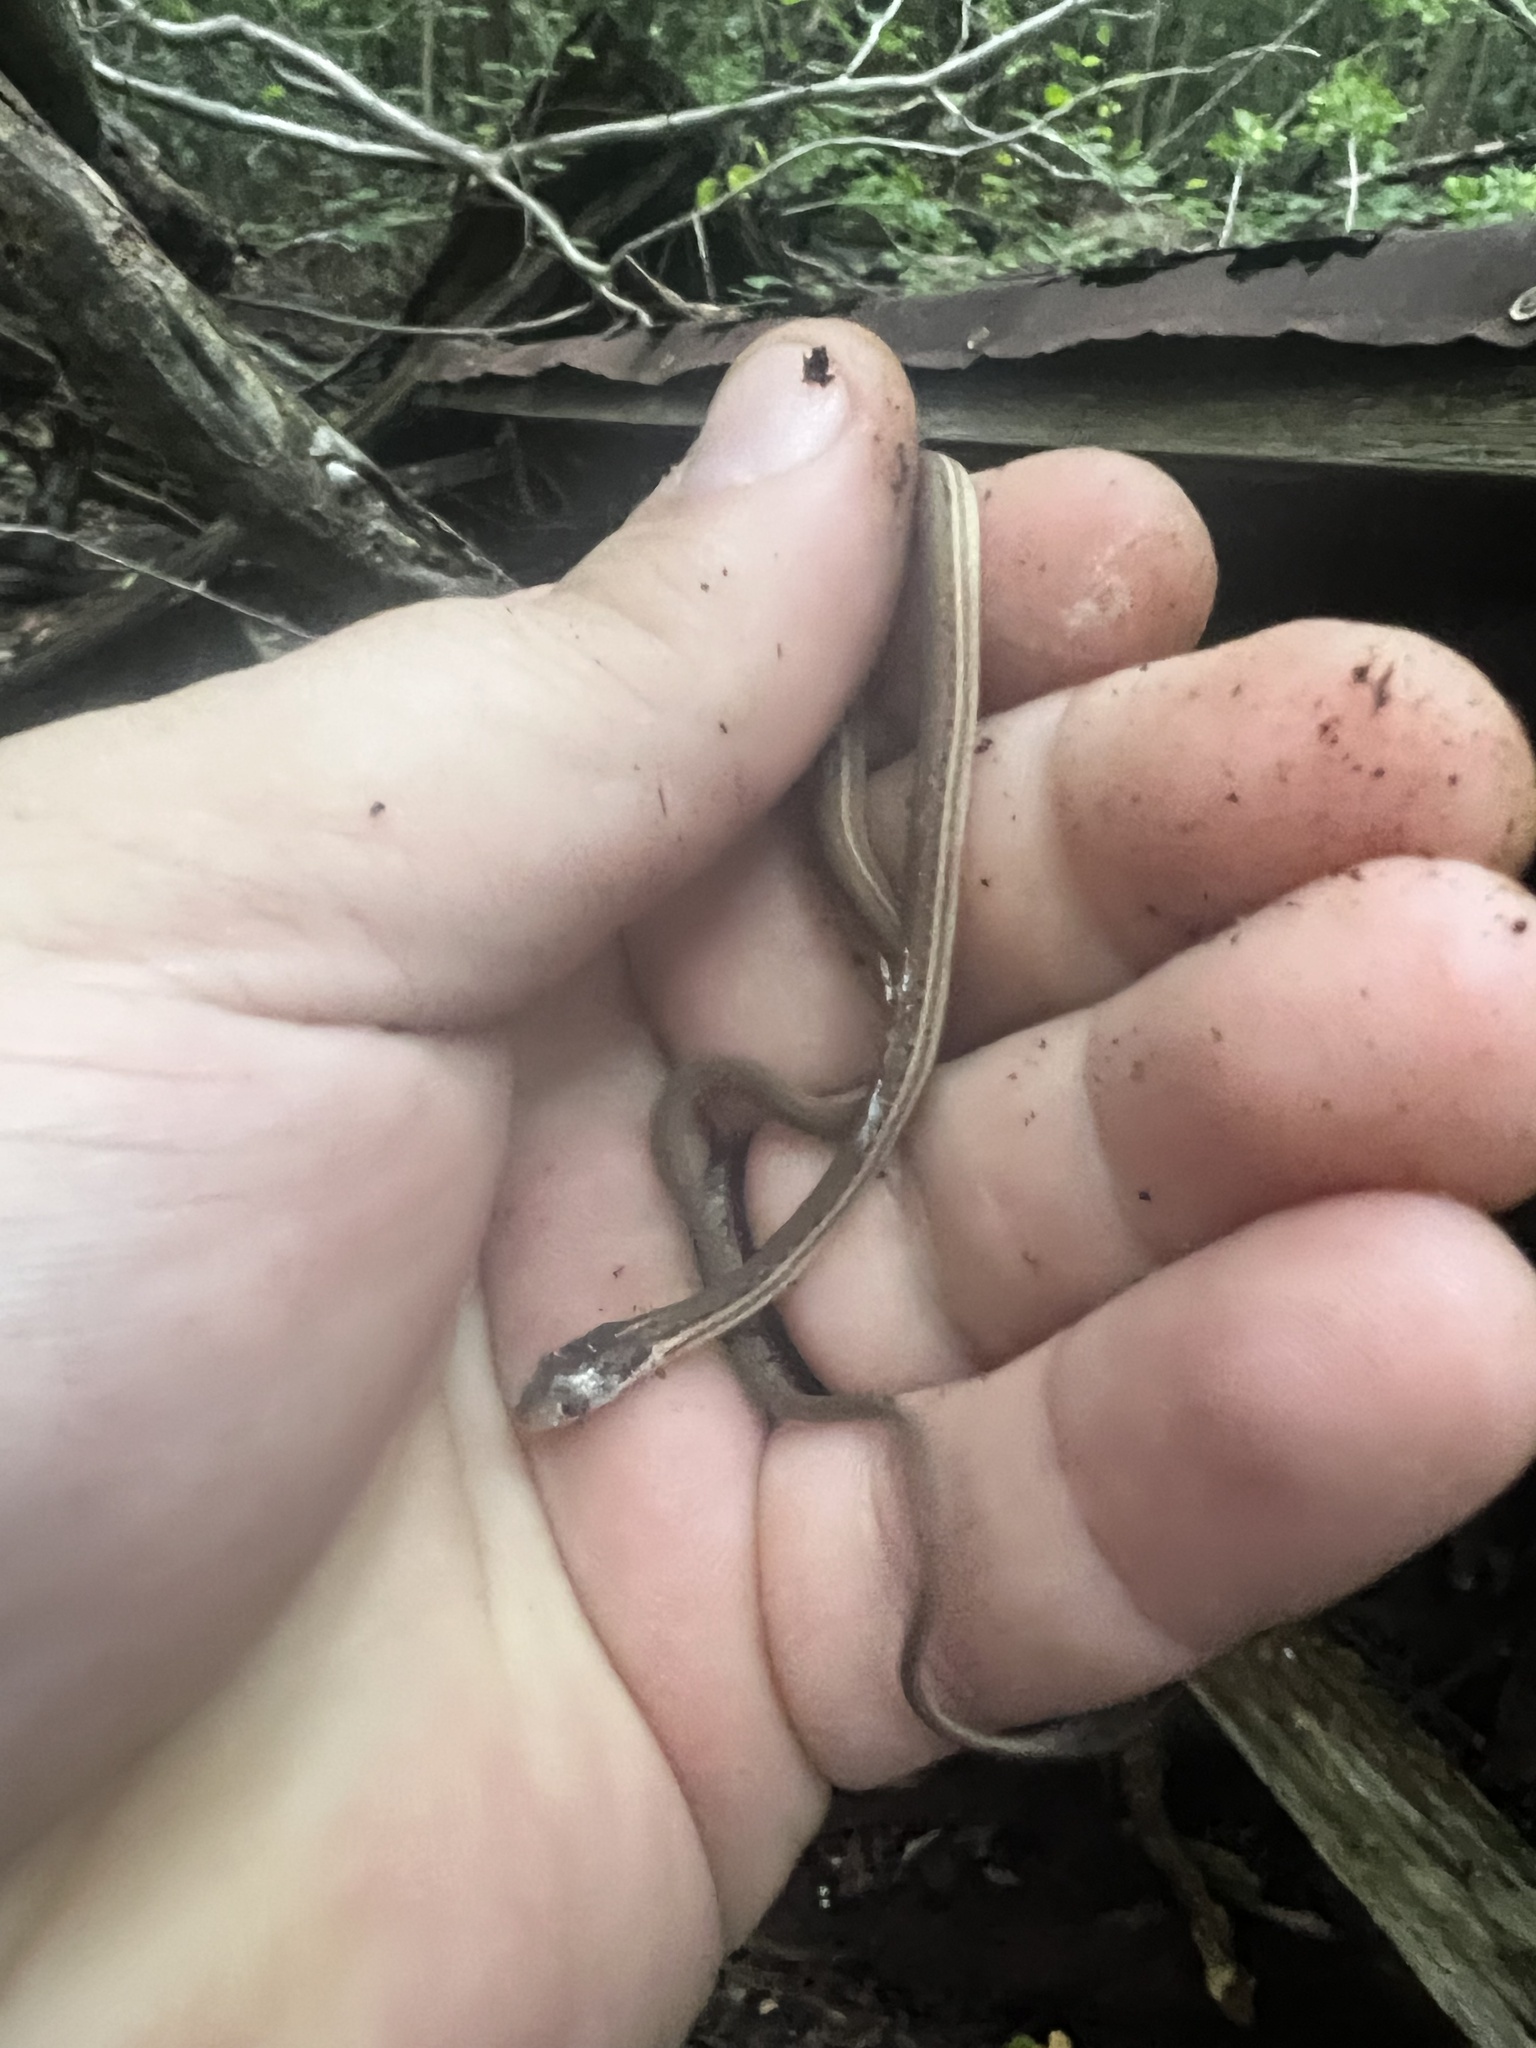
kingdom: Animalia
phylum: Chordata
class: Squamata
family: Colubridae
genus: Thamnophis
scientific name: Thamnophis saurita
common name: Eastern ribbonsnake
